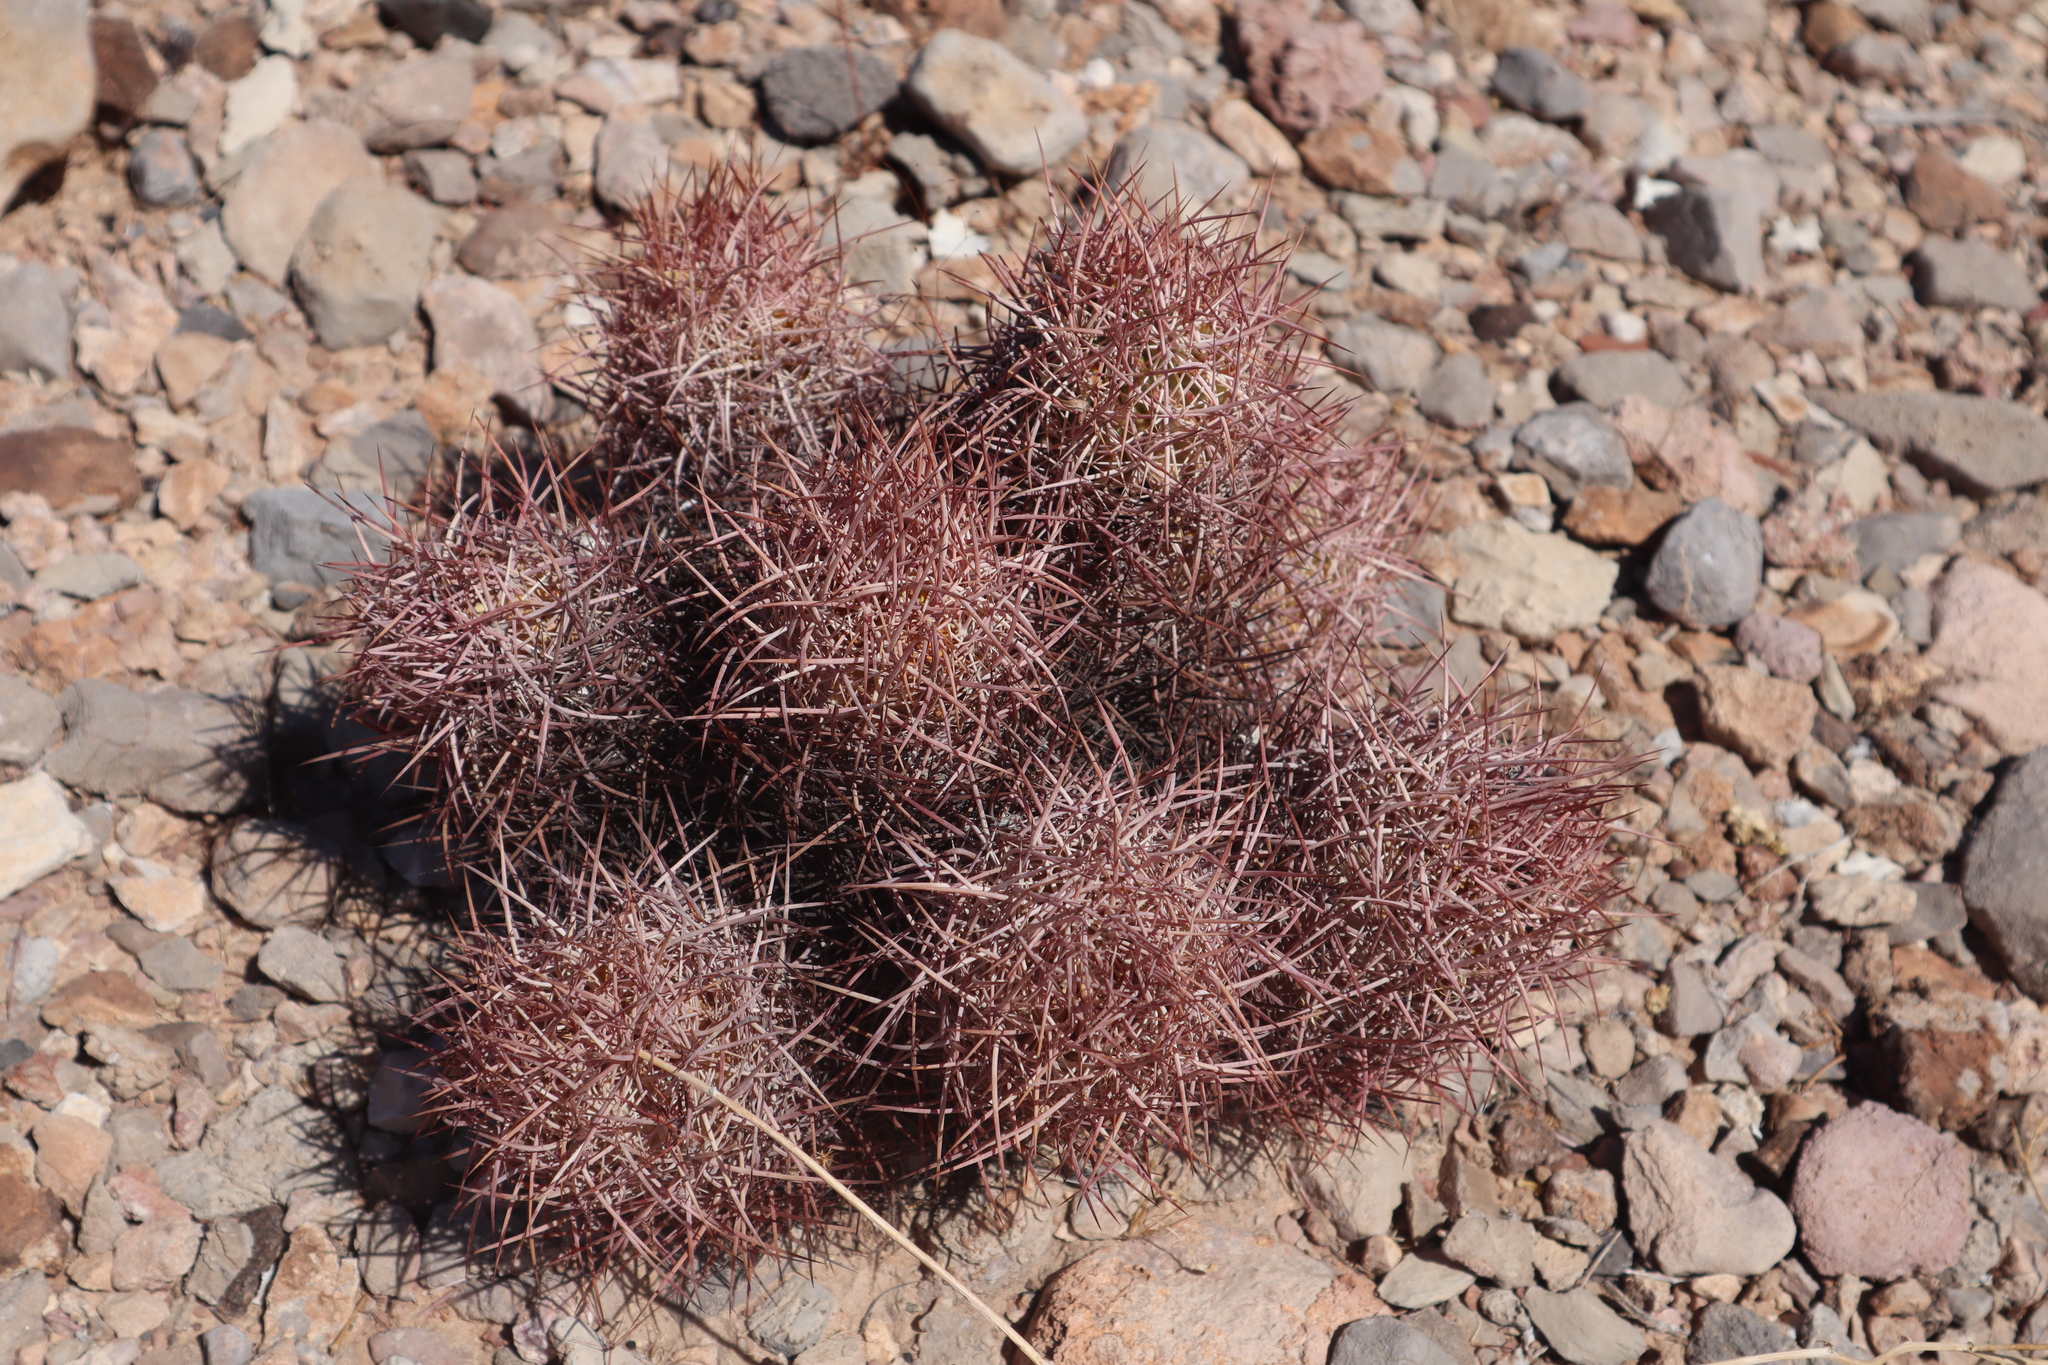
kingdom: Plantae
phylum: Tracheophyta
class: Magnoliopsida
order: Caryophyllales
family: Cactaceae
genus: Sclerocactus
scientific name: Sclerocactus johnsonii
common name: Eight-spine fishhook cactus
